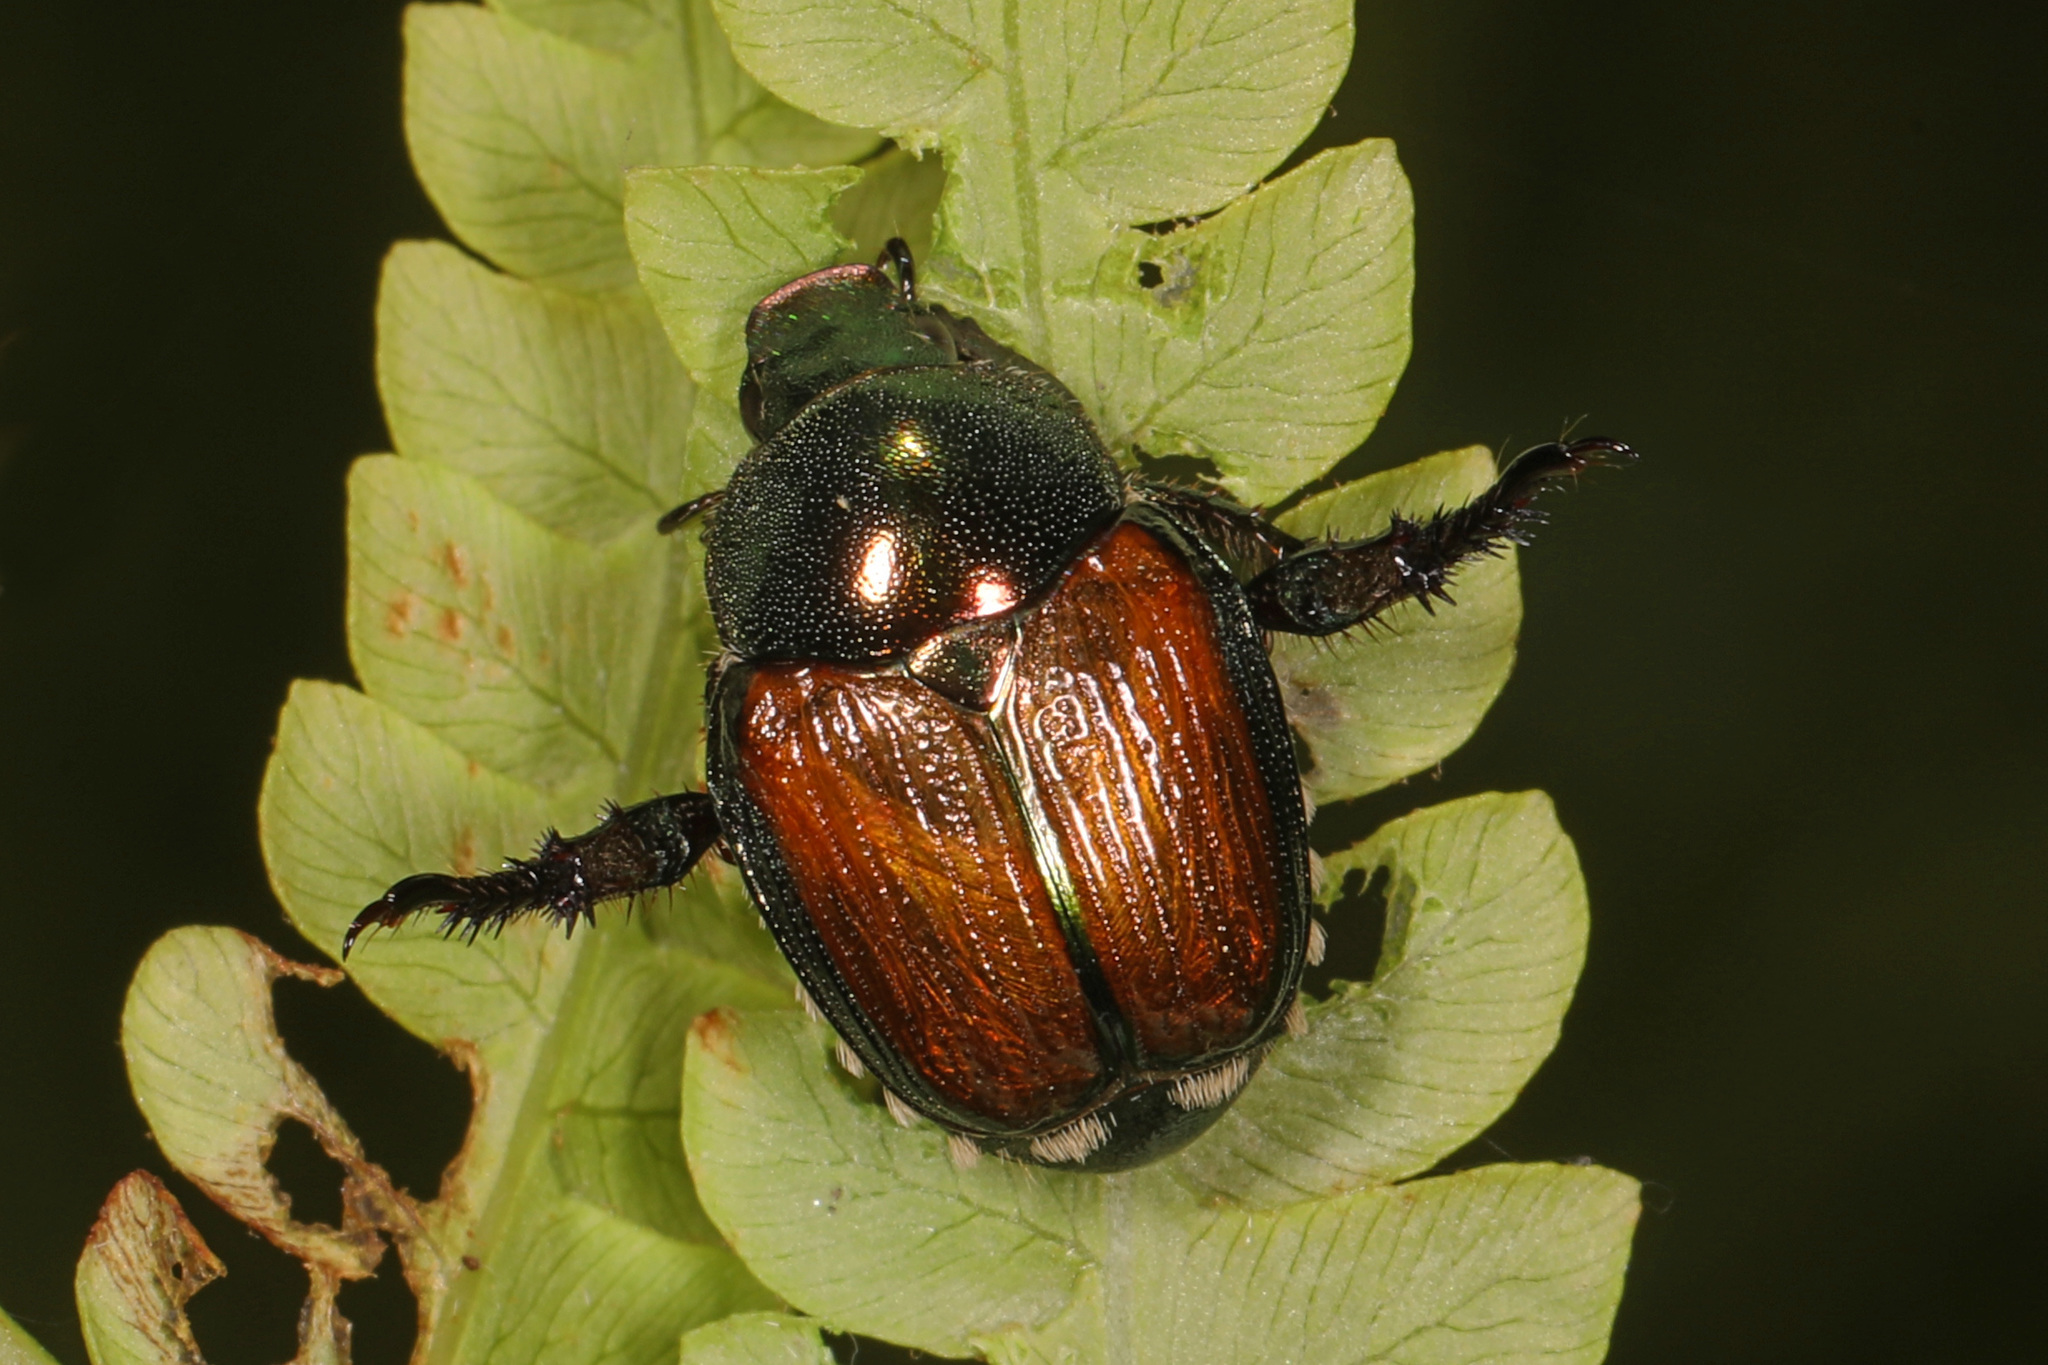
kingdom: Animalia
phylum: Arthropoda
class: Insecta
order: Coleoptera
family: Scarabaeidae
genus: Popillia
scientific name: Popillia japonica
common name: Japanese beetle
